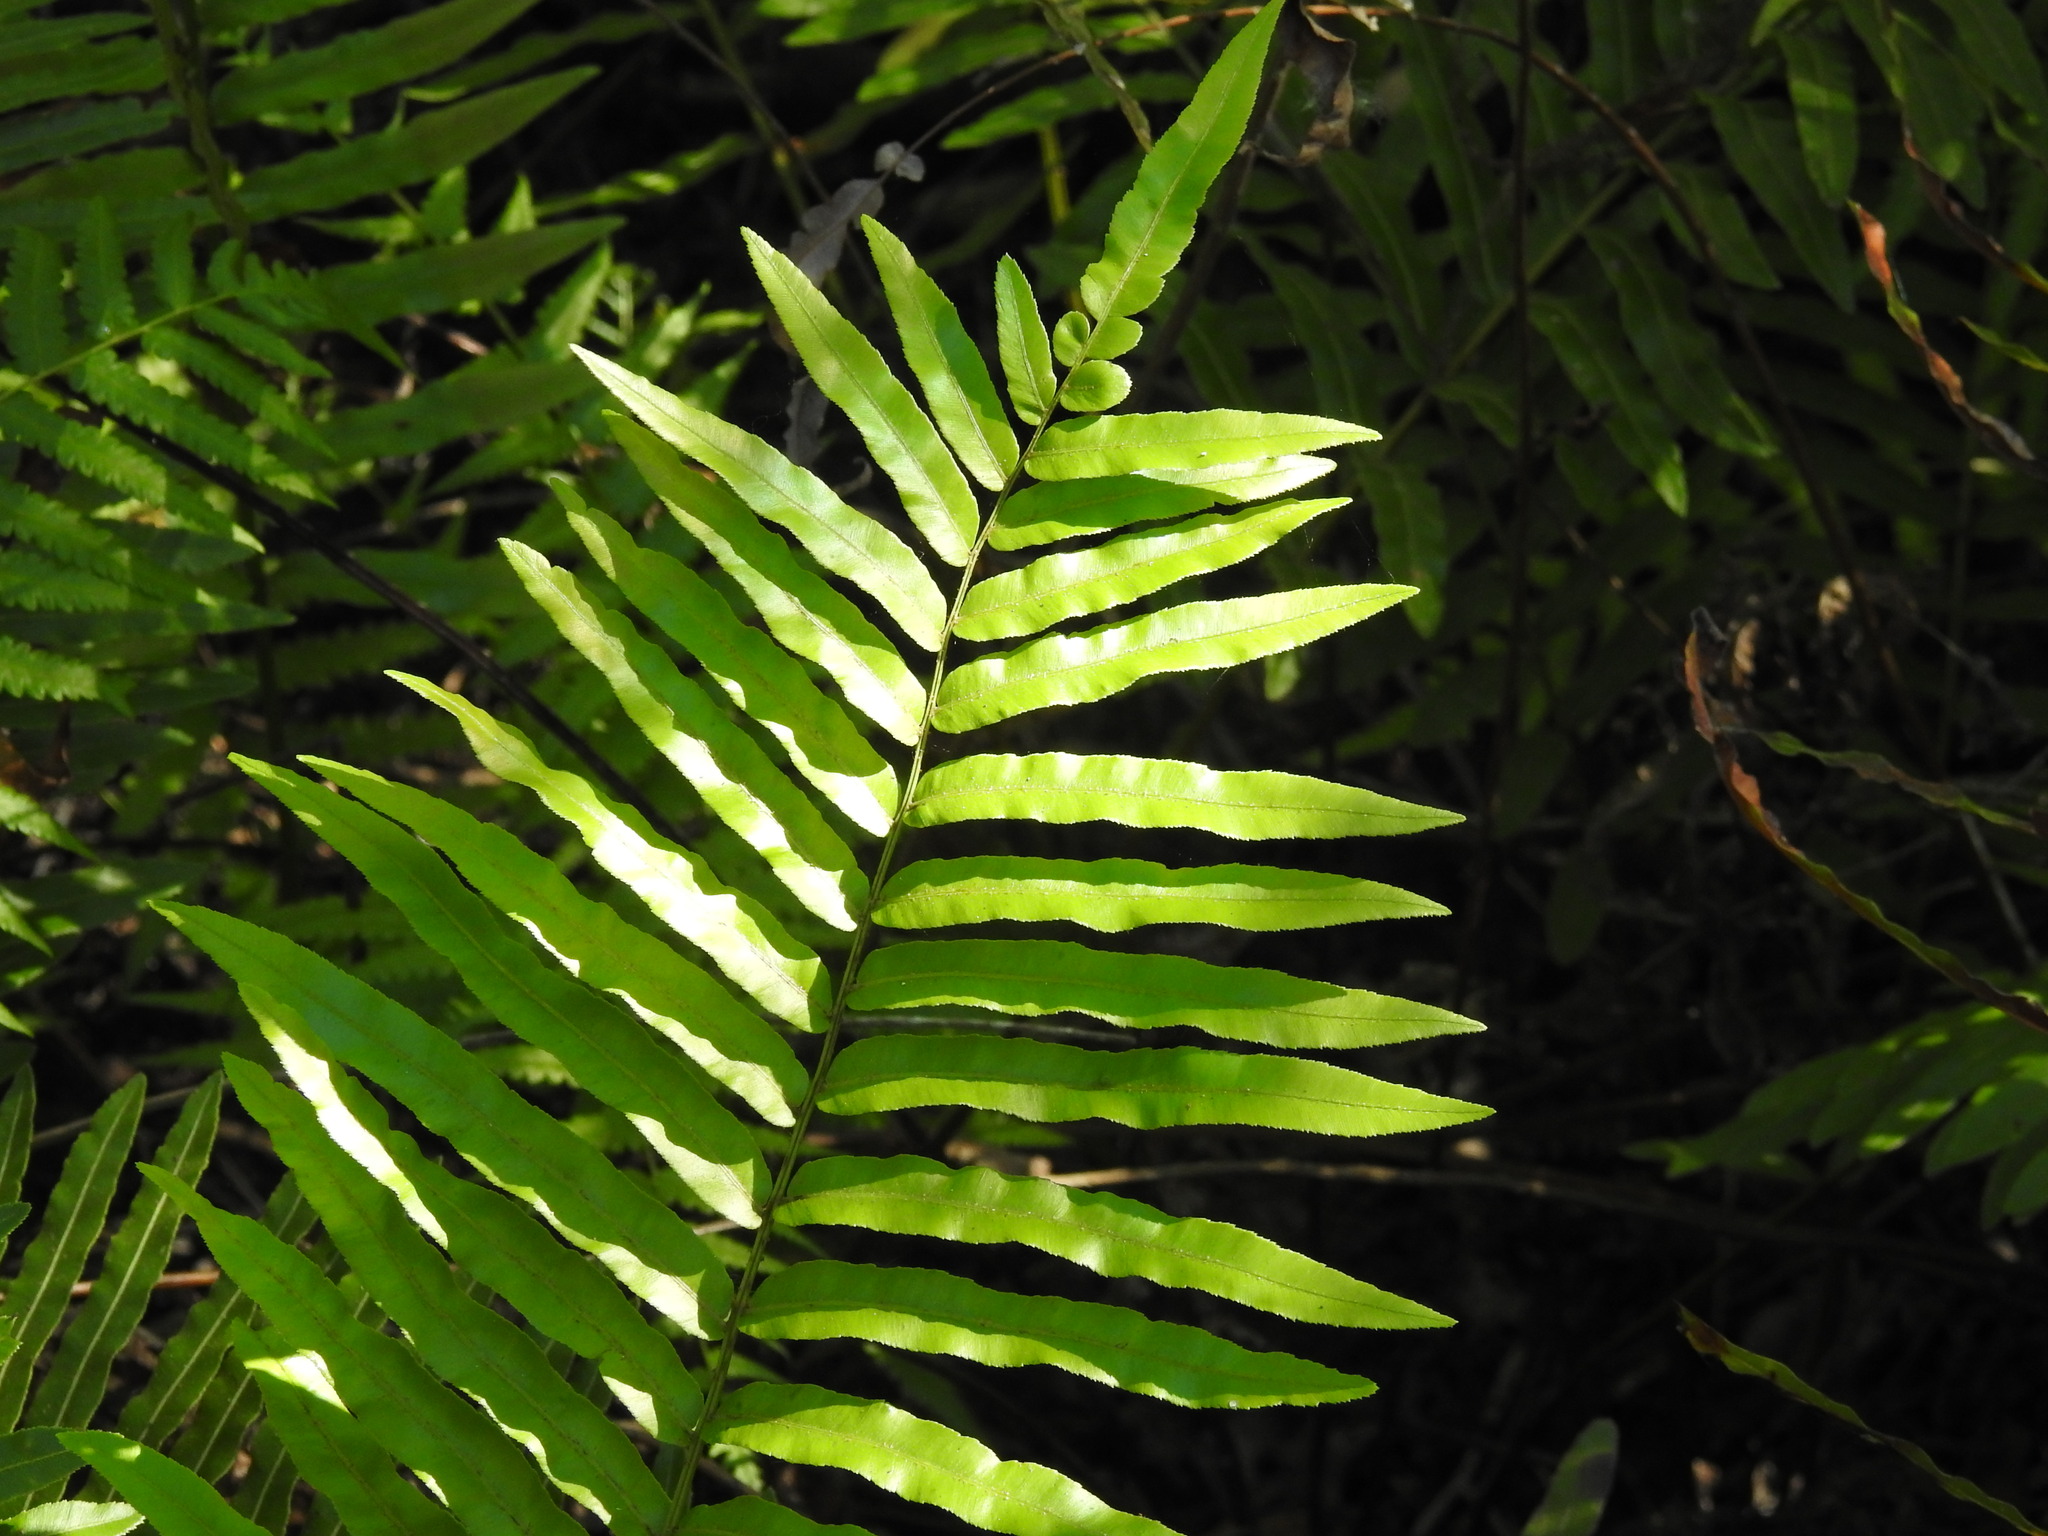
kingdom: Plantae
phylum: Tracheophyta
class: Polypodiopsida
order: Polypodiales
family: Blechnaceae
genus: Telmatoblechnum
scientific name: Telmatoblechnum serrulatum
